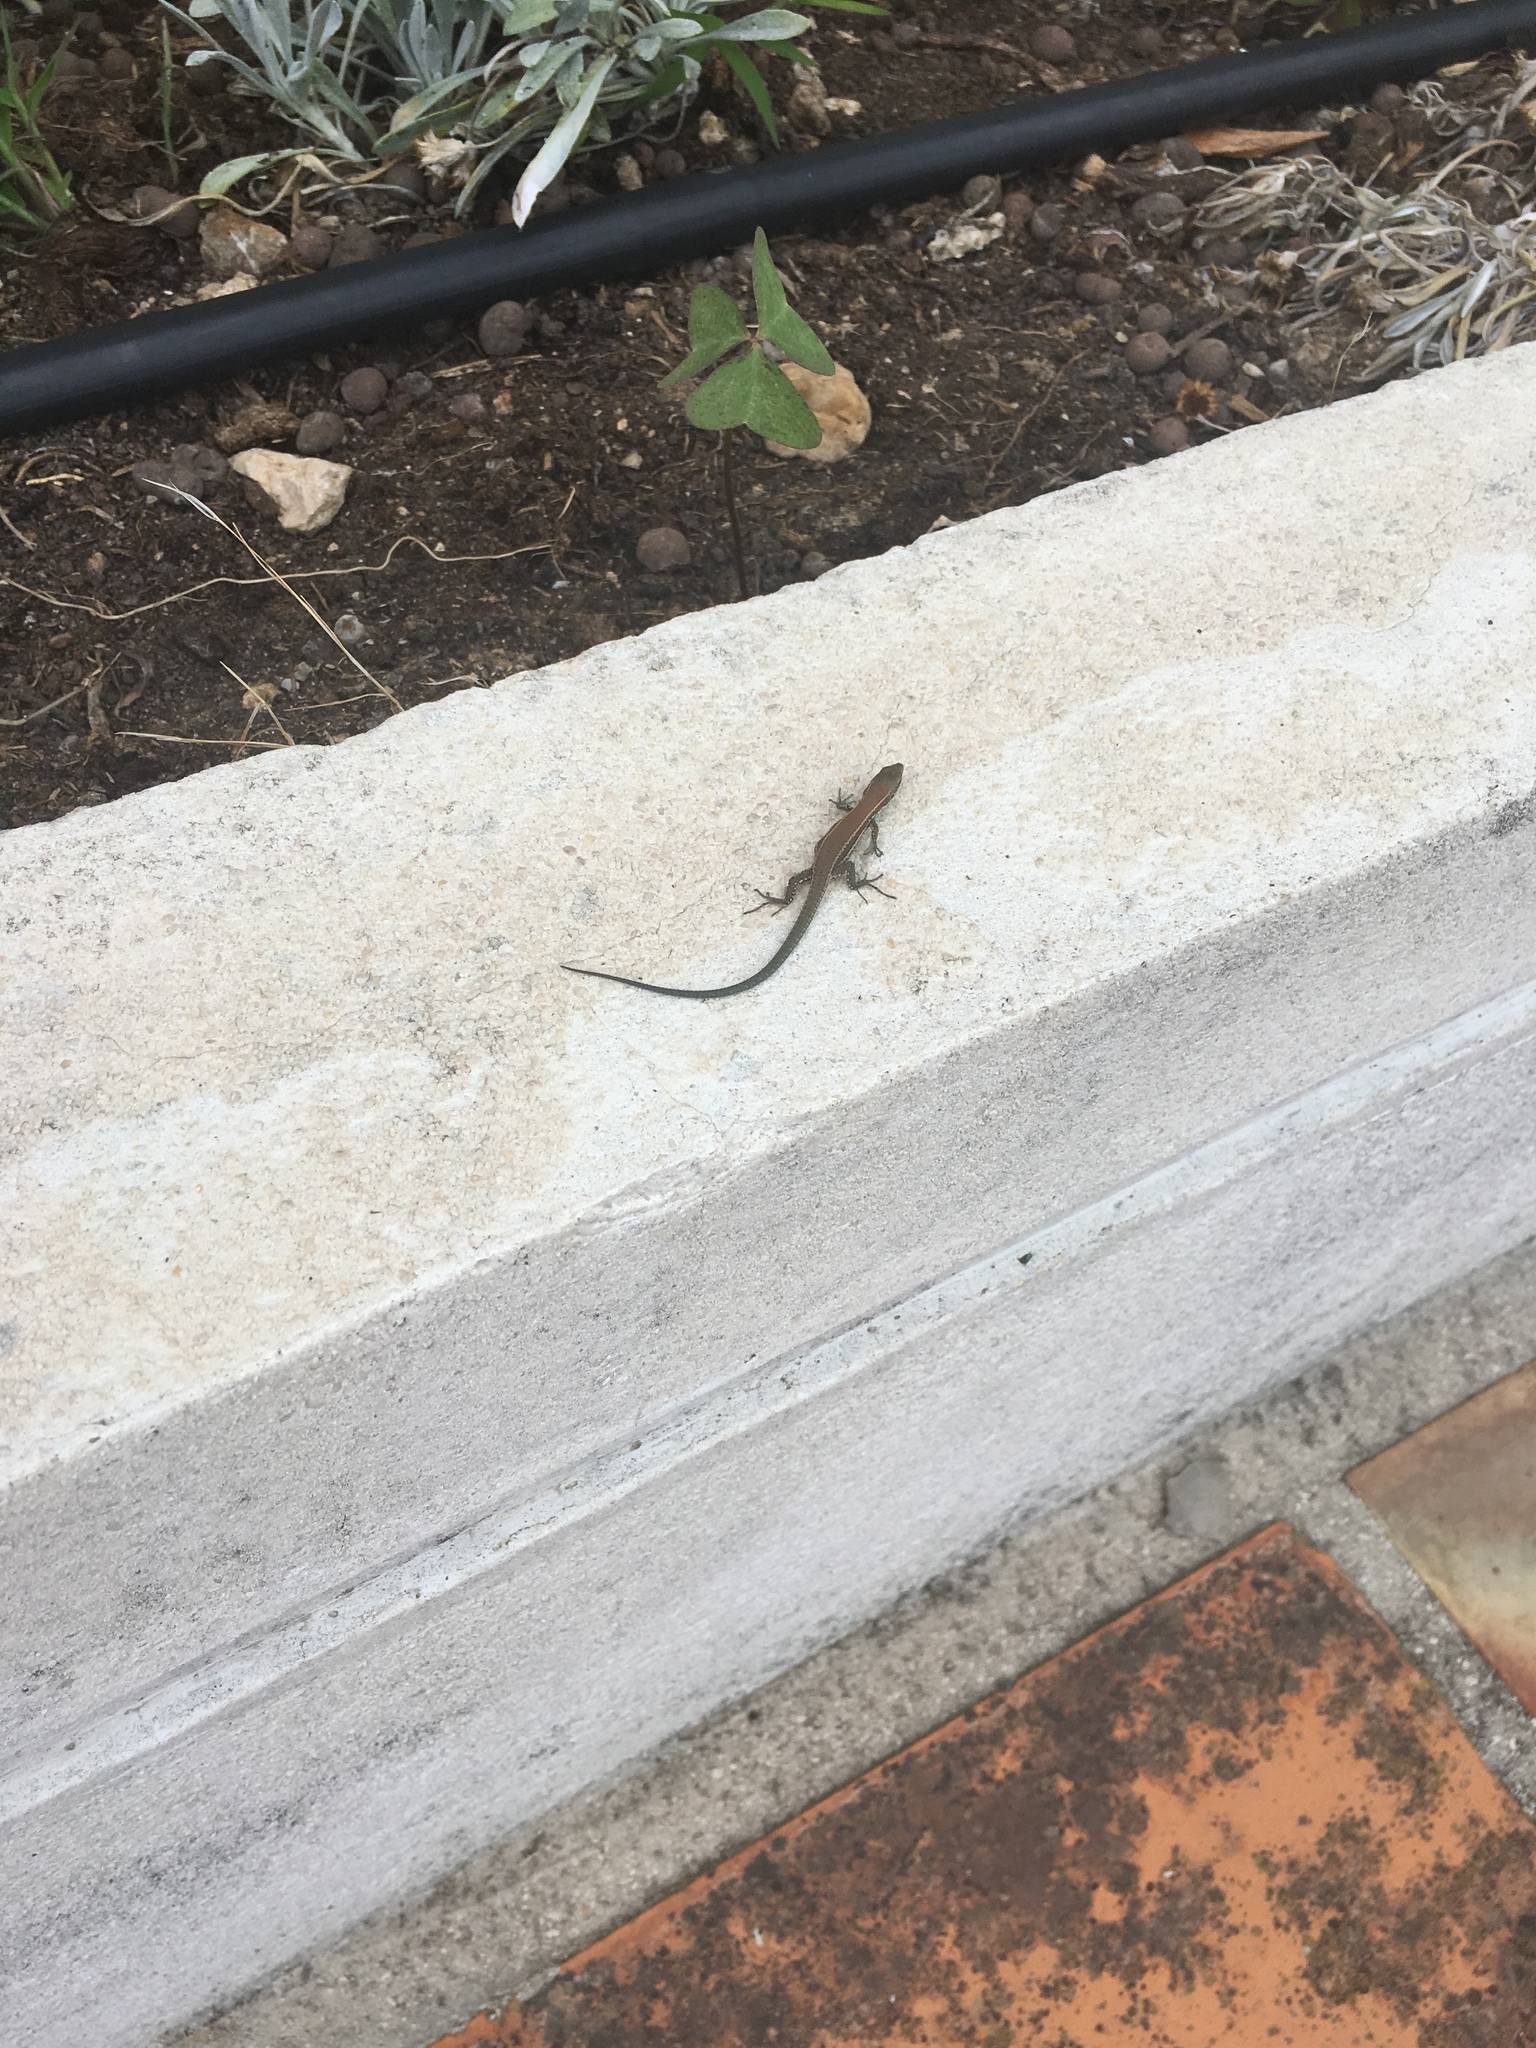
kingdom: Animalia
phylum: Chordata
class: Squamata
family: Lacertidae
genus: Podarcis
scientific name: Podarcis muralis
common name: Common wall lizard
